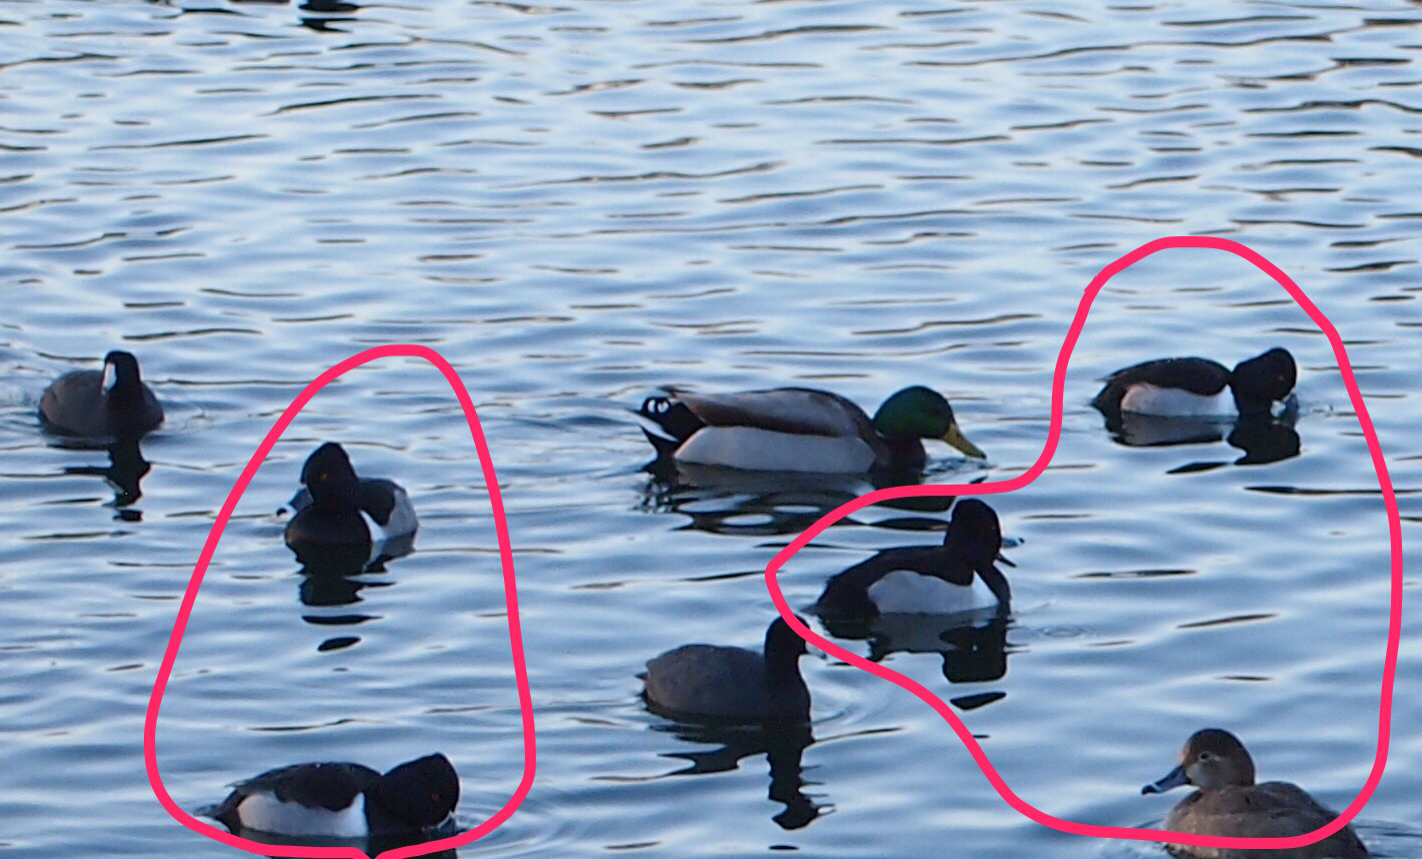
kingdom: Animalia
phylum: Chordata
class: Aves
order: Anseriformes
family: Anatidae
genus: Aythya
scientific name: Aythya collaris
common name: Ring-necked duck
